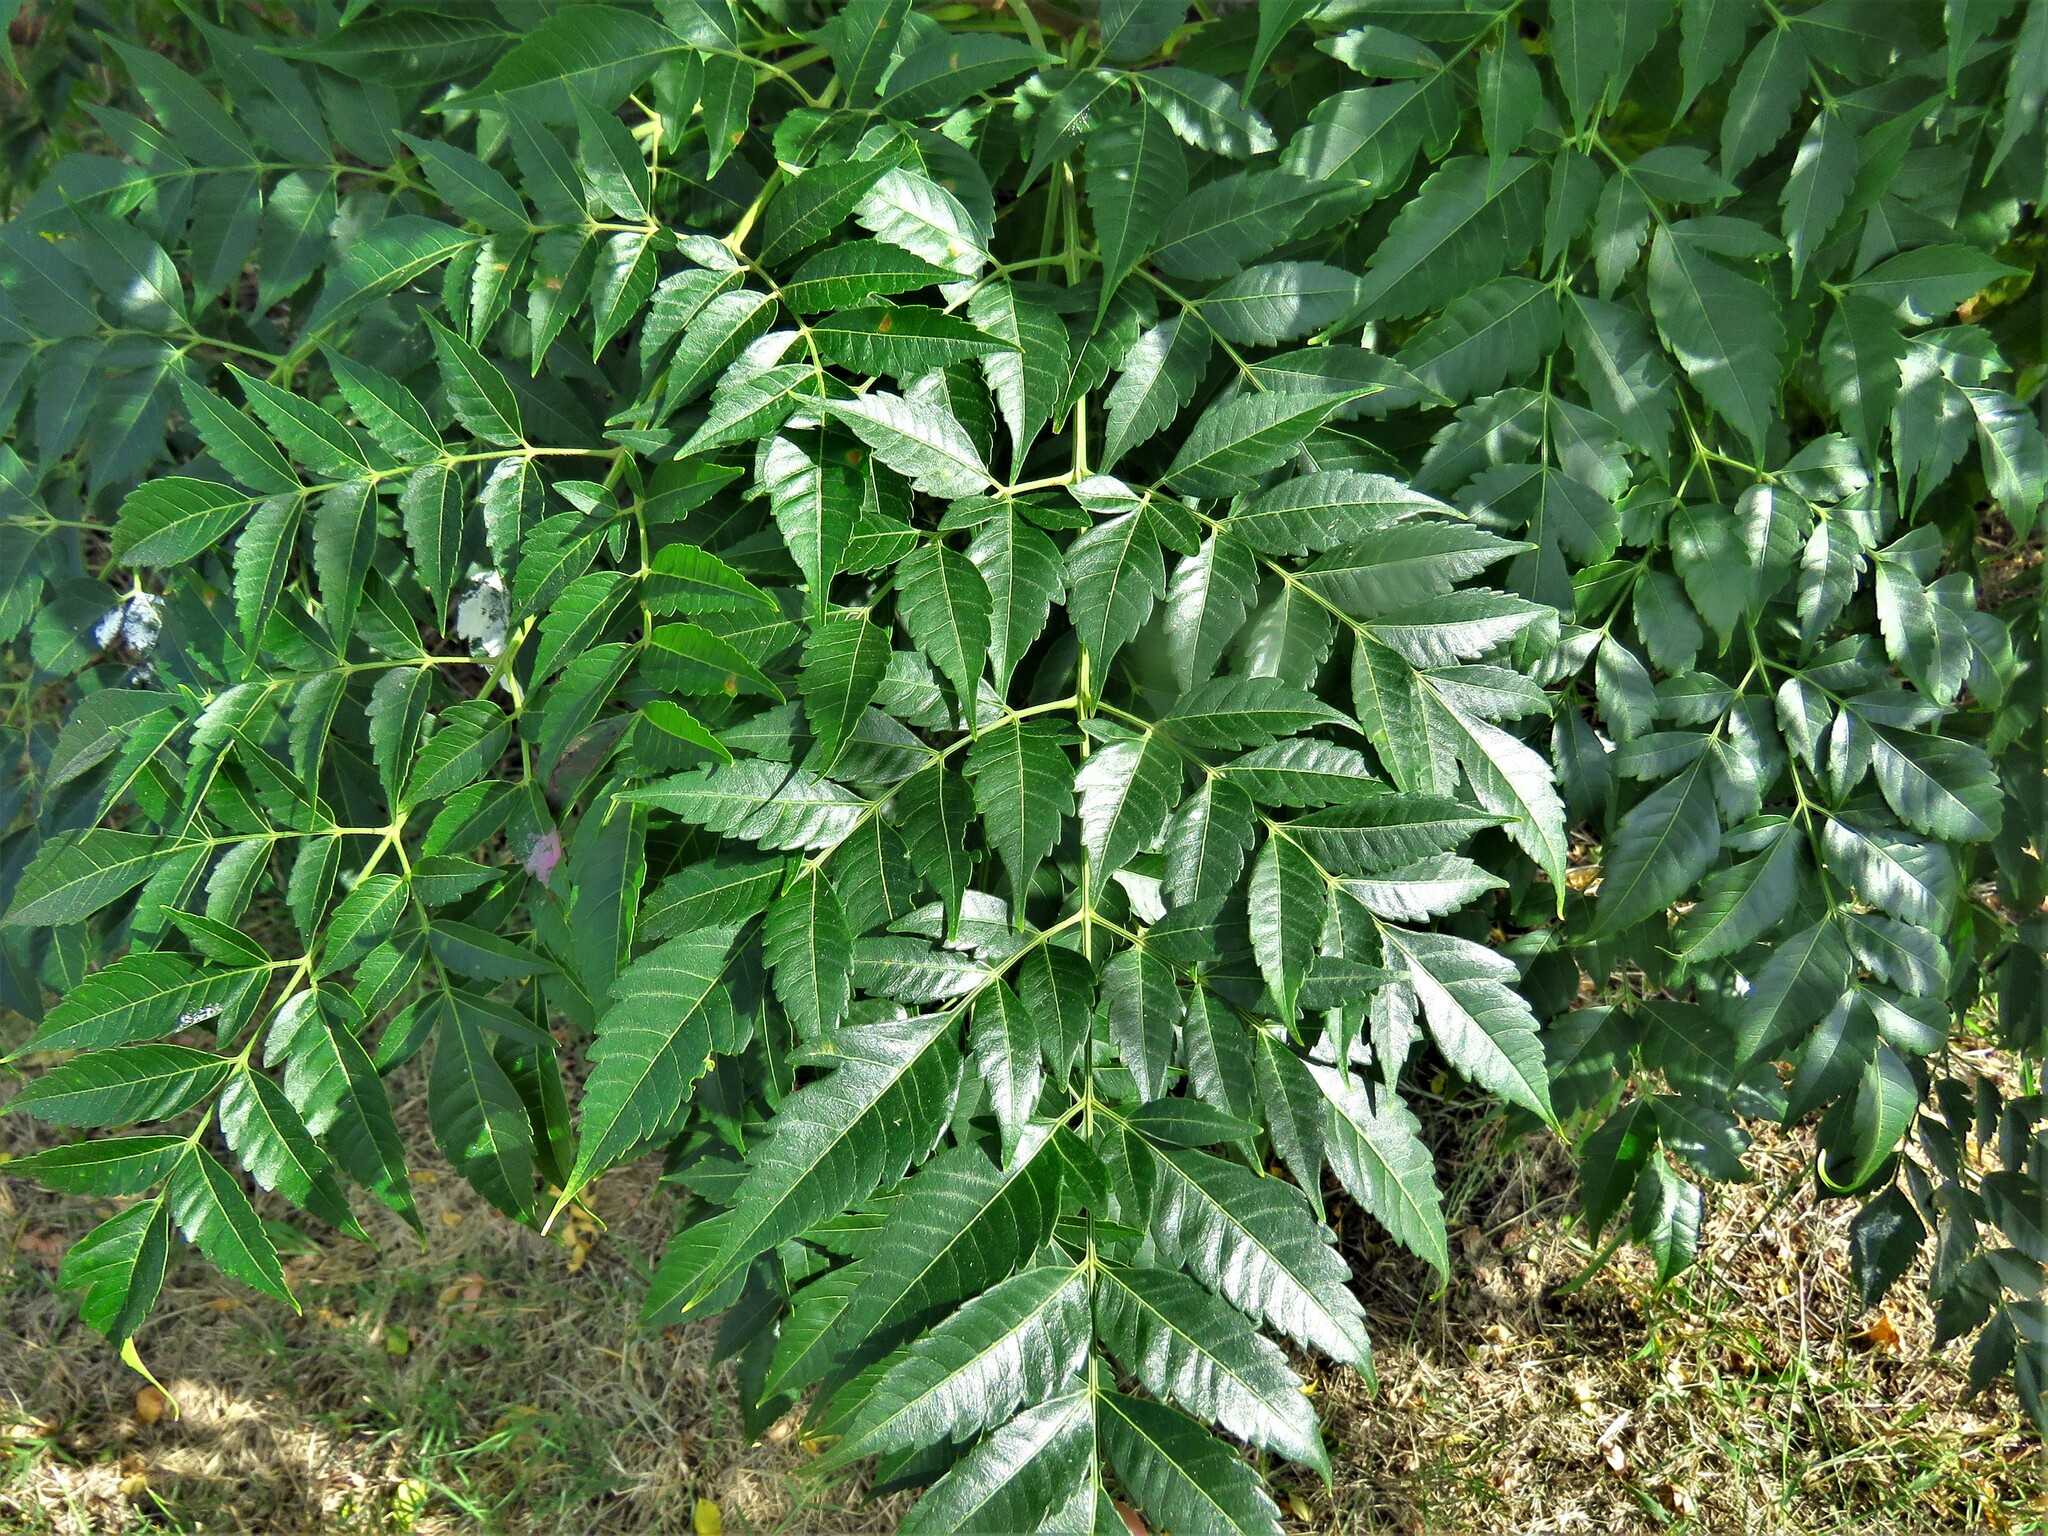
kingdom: Plantae
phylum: Tracheophyta
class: Magnoliopsida
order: Sapindales
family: Meliaceae
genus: Melia
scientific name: Melia azedarach
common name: Chinaberrytree
